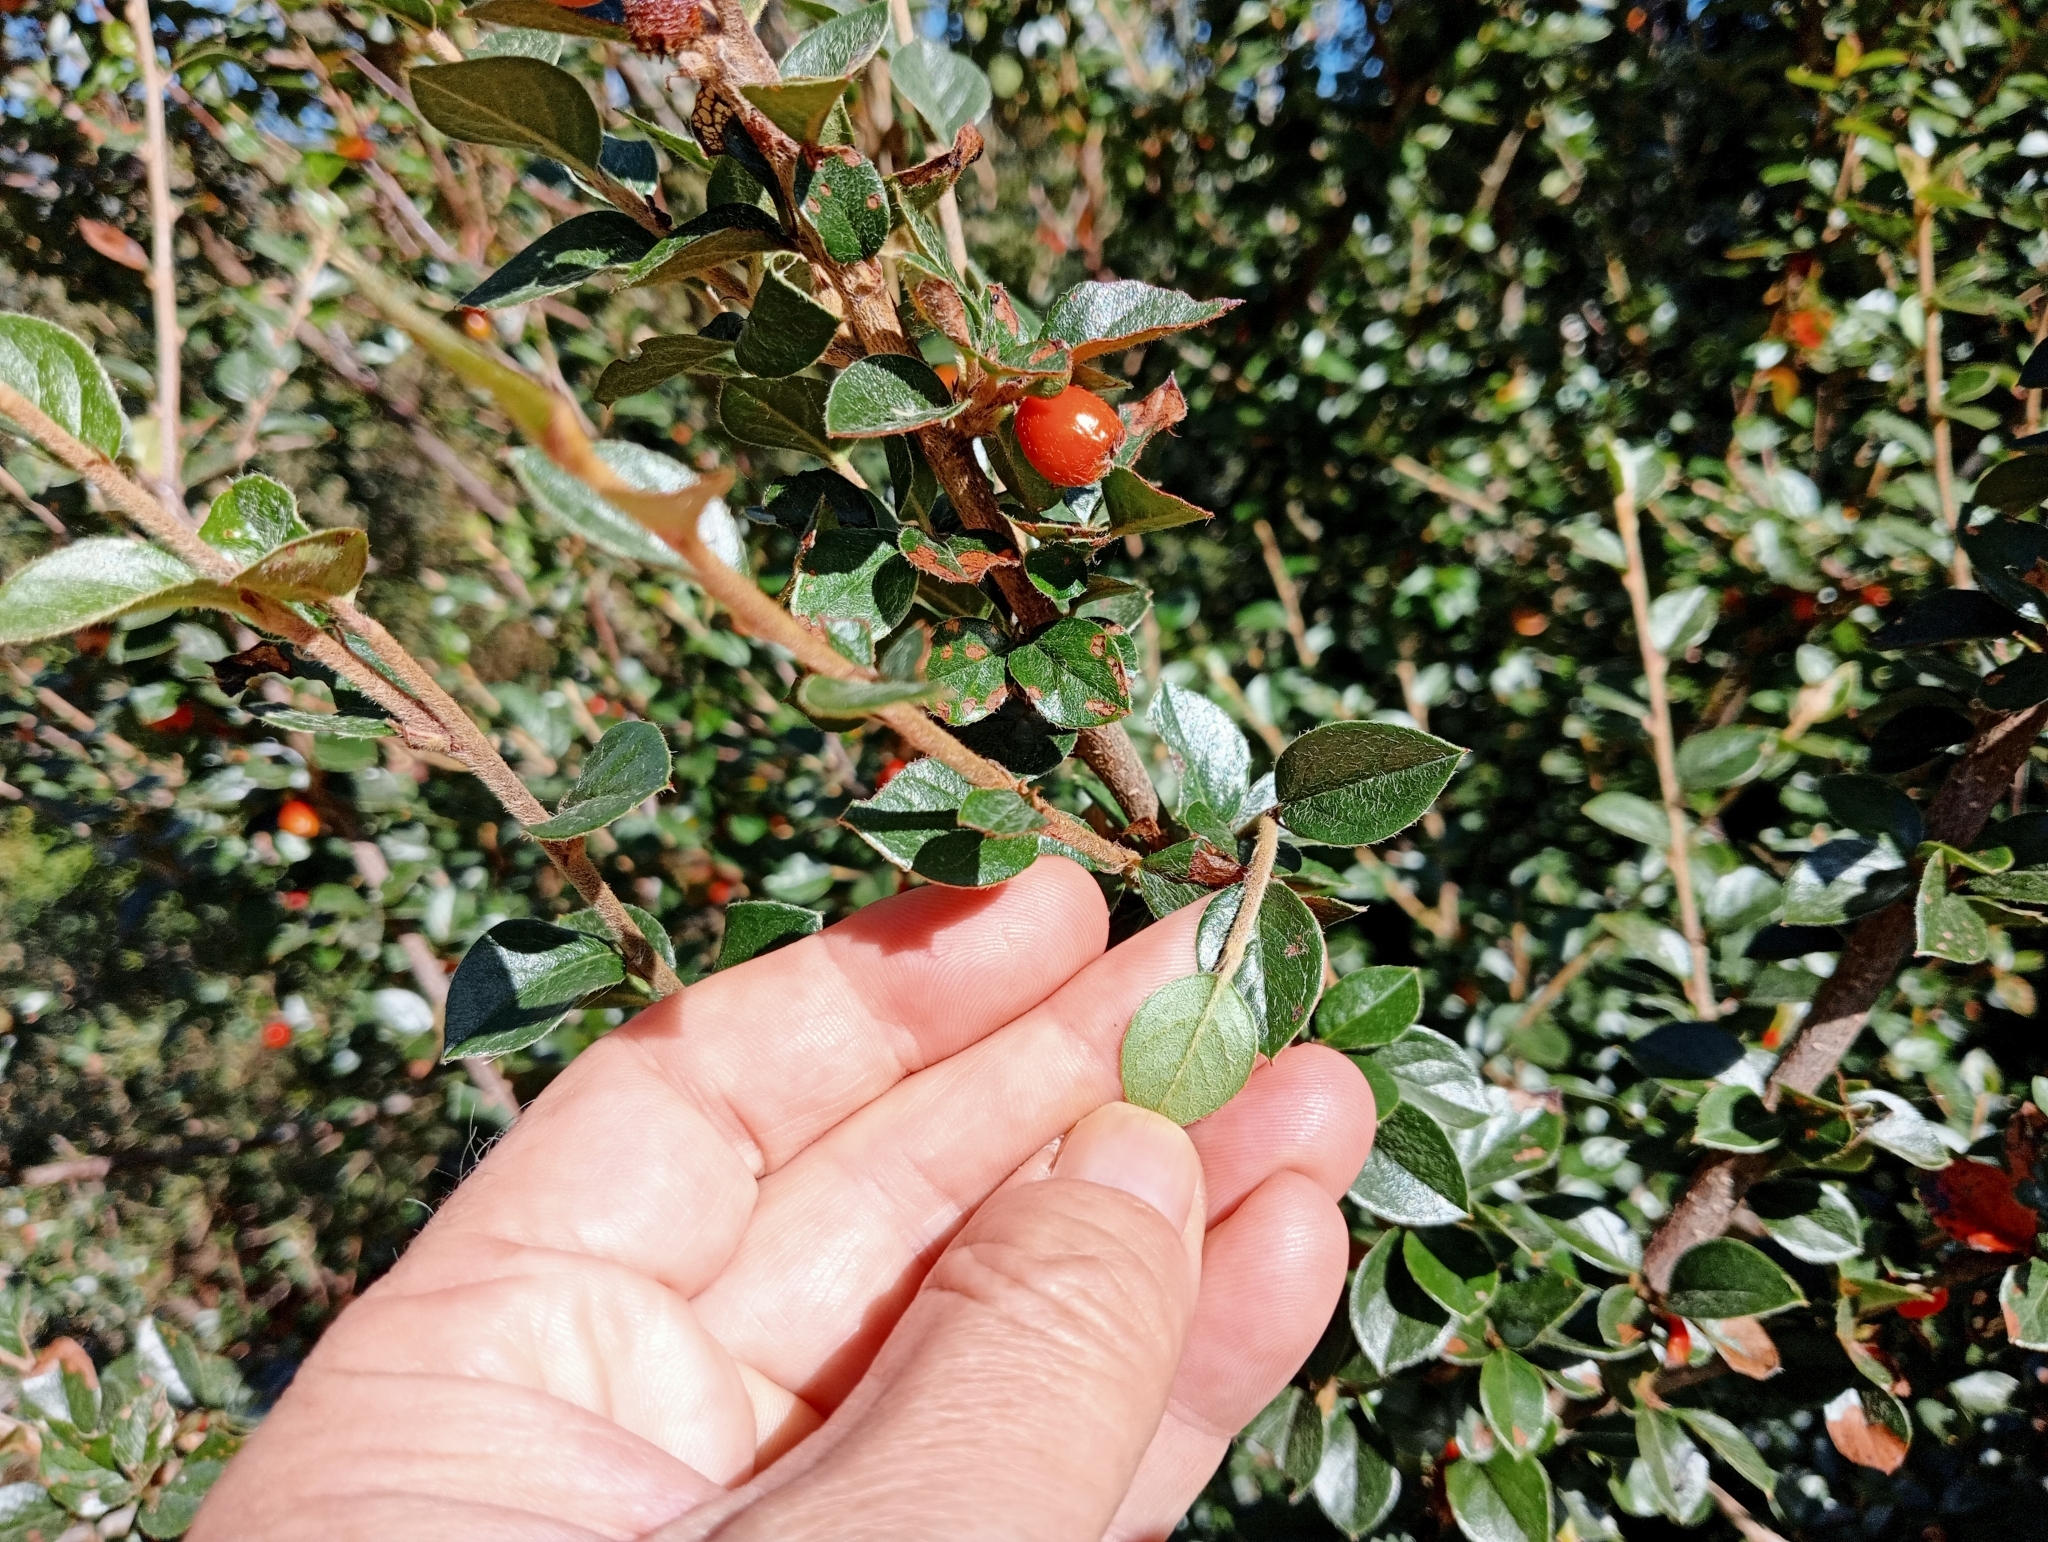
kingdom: Plantae
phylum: Tracheophyta
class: Magnoliopsida
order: Rosales
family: Rosaceae
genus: Cotoneaster
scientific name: Cotoneaster simonsii
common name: Himalayan cotoneaster
